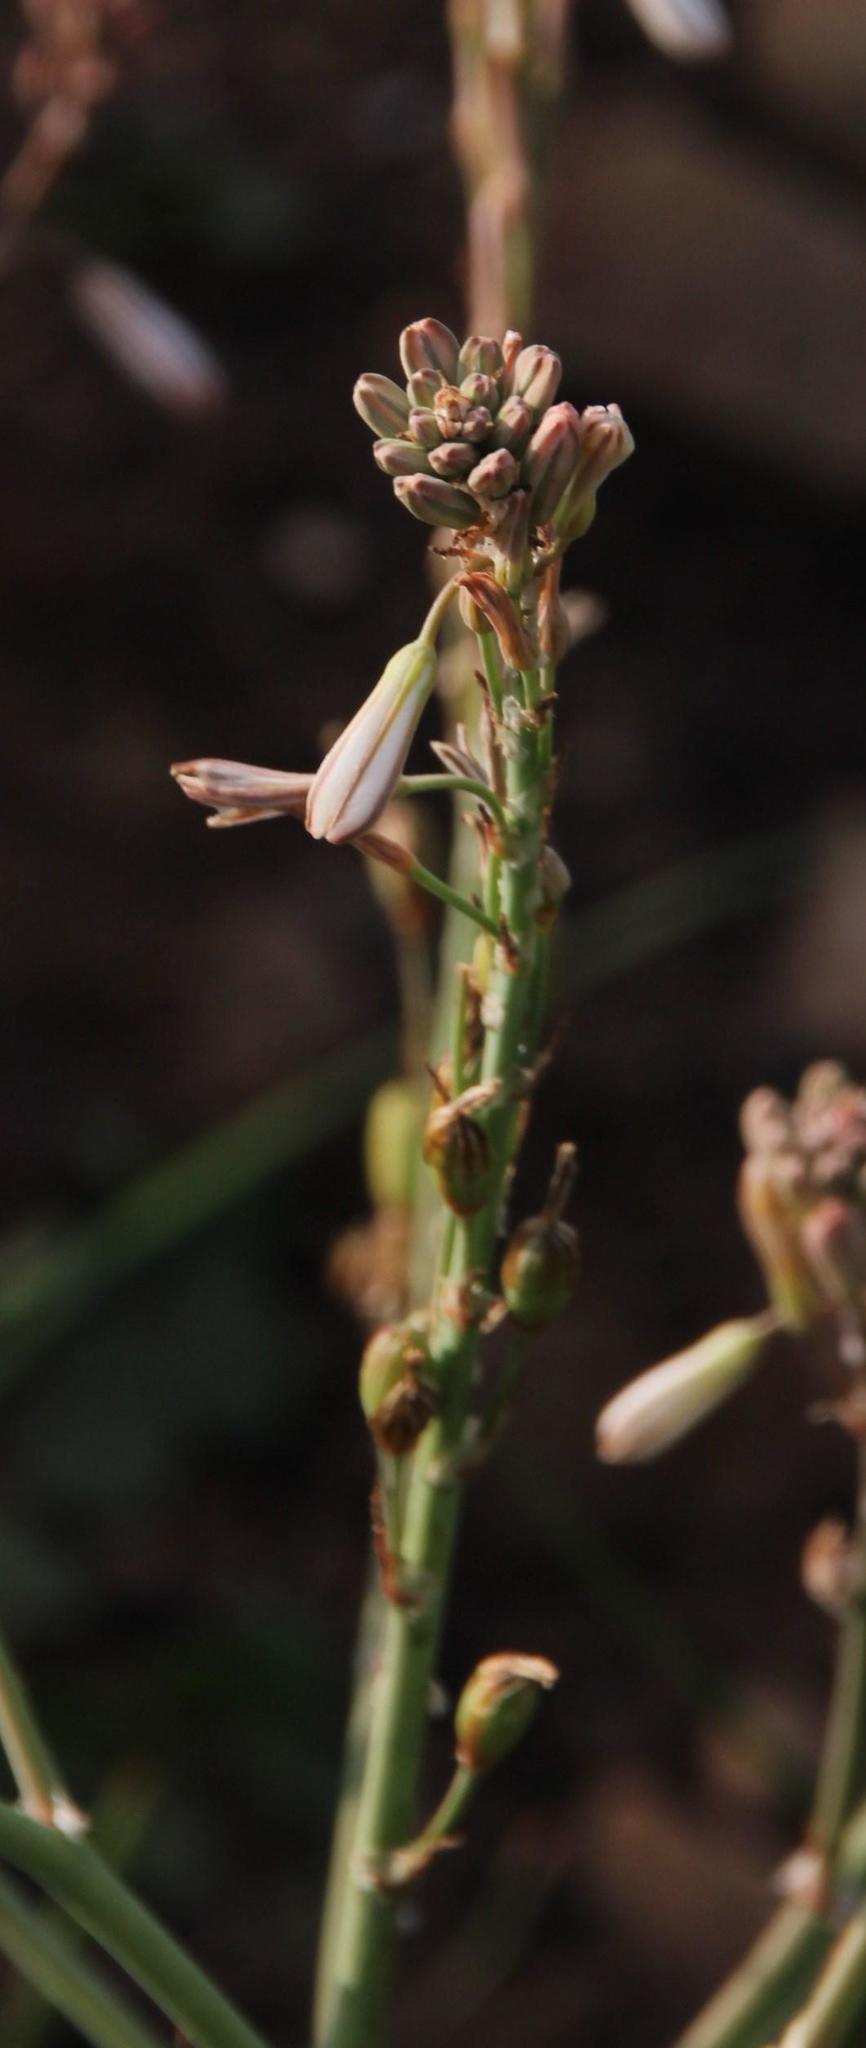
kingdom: Plantae
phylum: Tracheophyta
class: Liliopsida
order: Asparagales
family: Asphodelaceae
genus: Trachyandra
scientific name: Trachyandra ciliata
